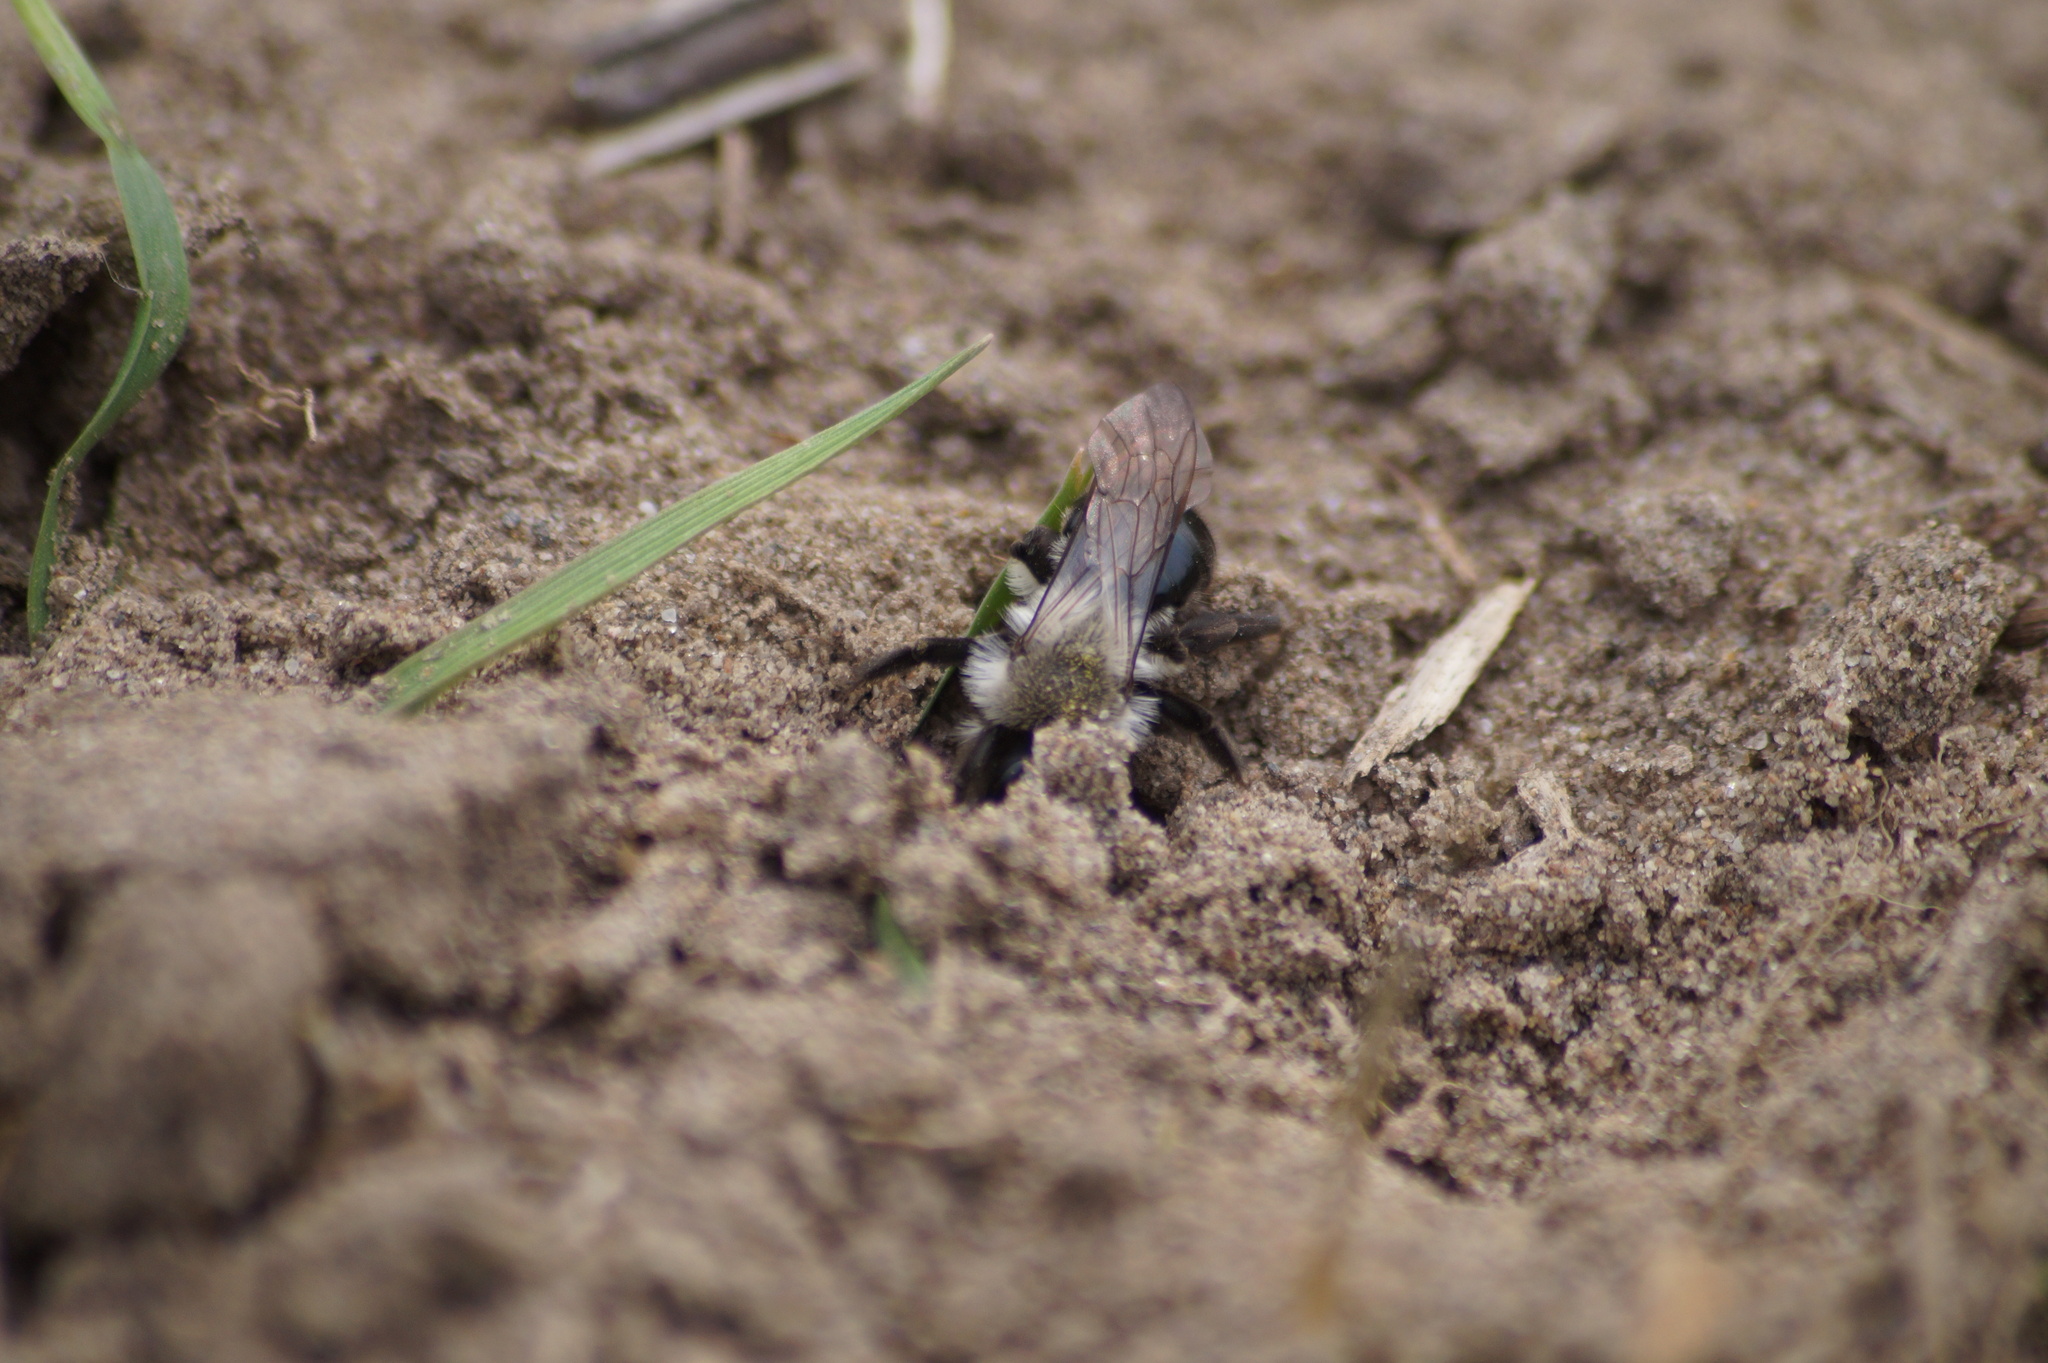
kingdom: Animalia
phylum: Arthropoda
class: Insecta
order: Hymenoptera
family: Andrenidae
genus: Andrena
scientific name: Andrena vaga
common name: Grey-backed mining bee
